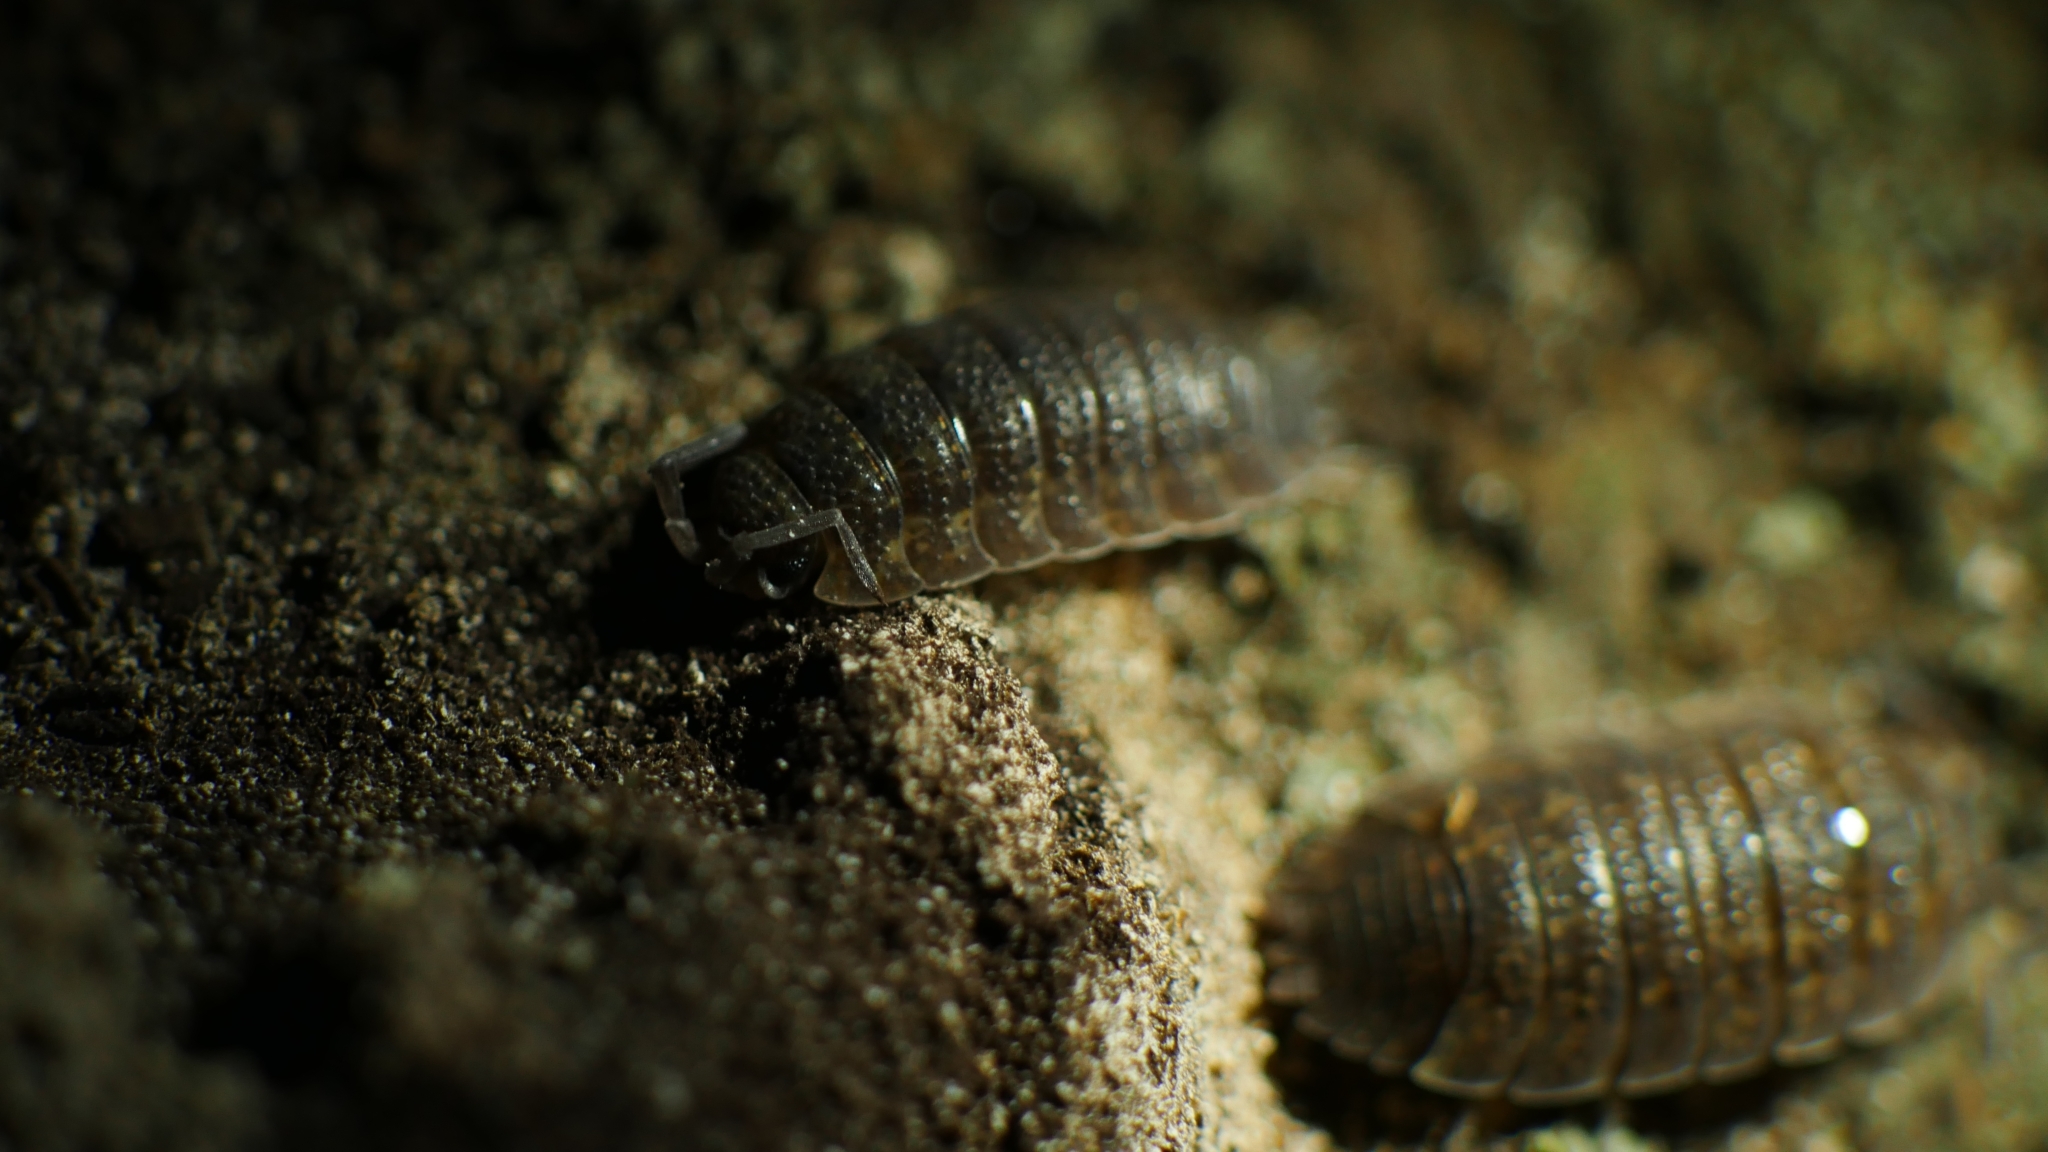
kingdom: Animalia
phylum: Arthropoda
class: Malacostraca
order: Isopoda
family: Porcellionidae
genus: Porcellio
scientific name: Porcellio scaber
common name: Common rough woodlouse
